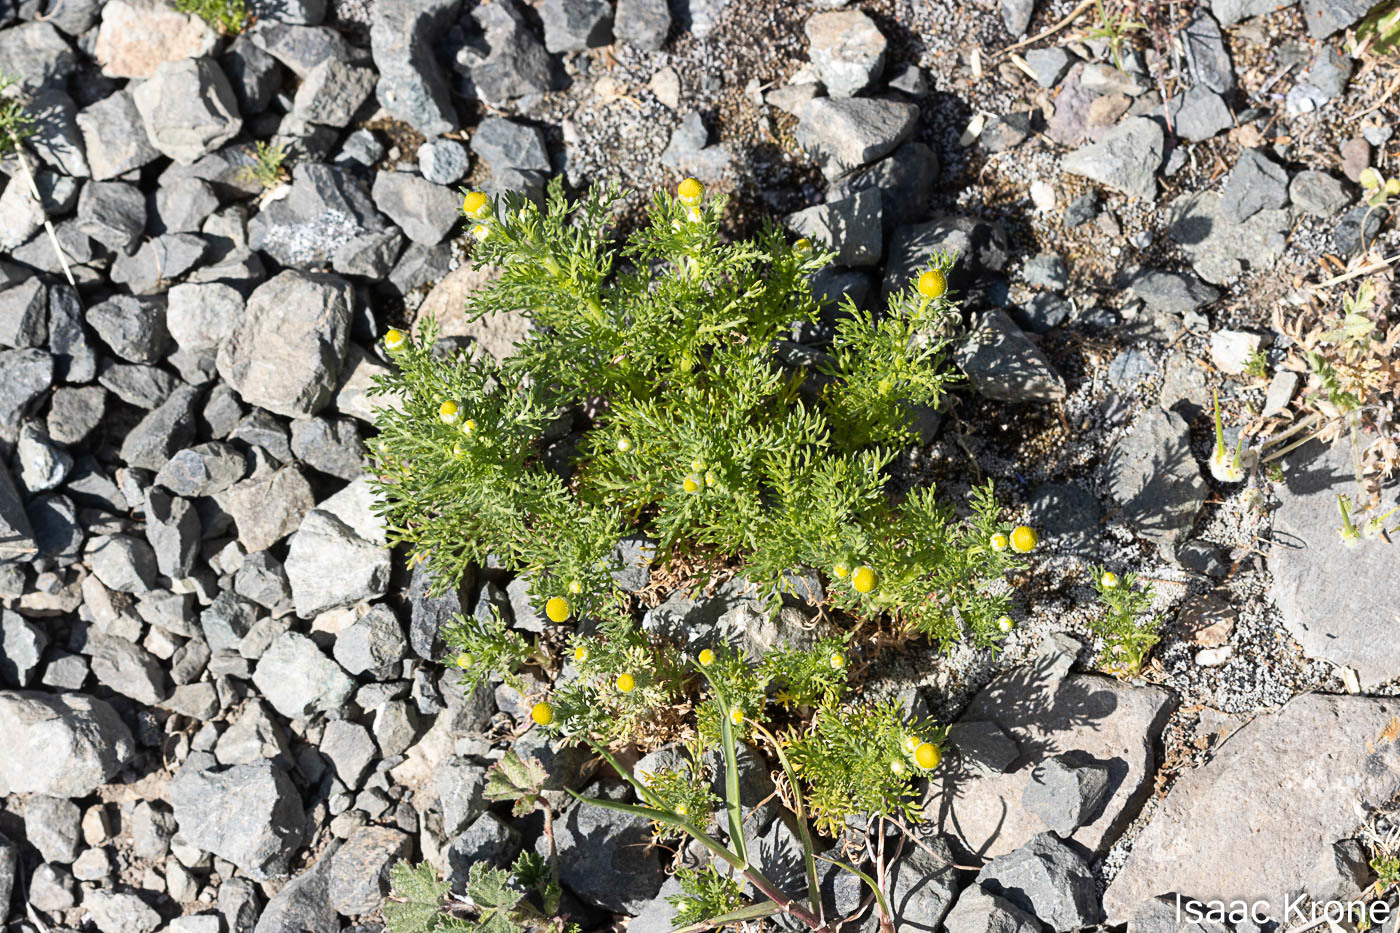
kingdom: Plantae
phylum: Tracheophyta
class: Magnoliopsida
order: Asterales
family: Asteraceae
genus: Matricaria
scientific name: Matricaria discoidea
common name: Disc mayweed
